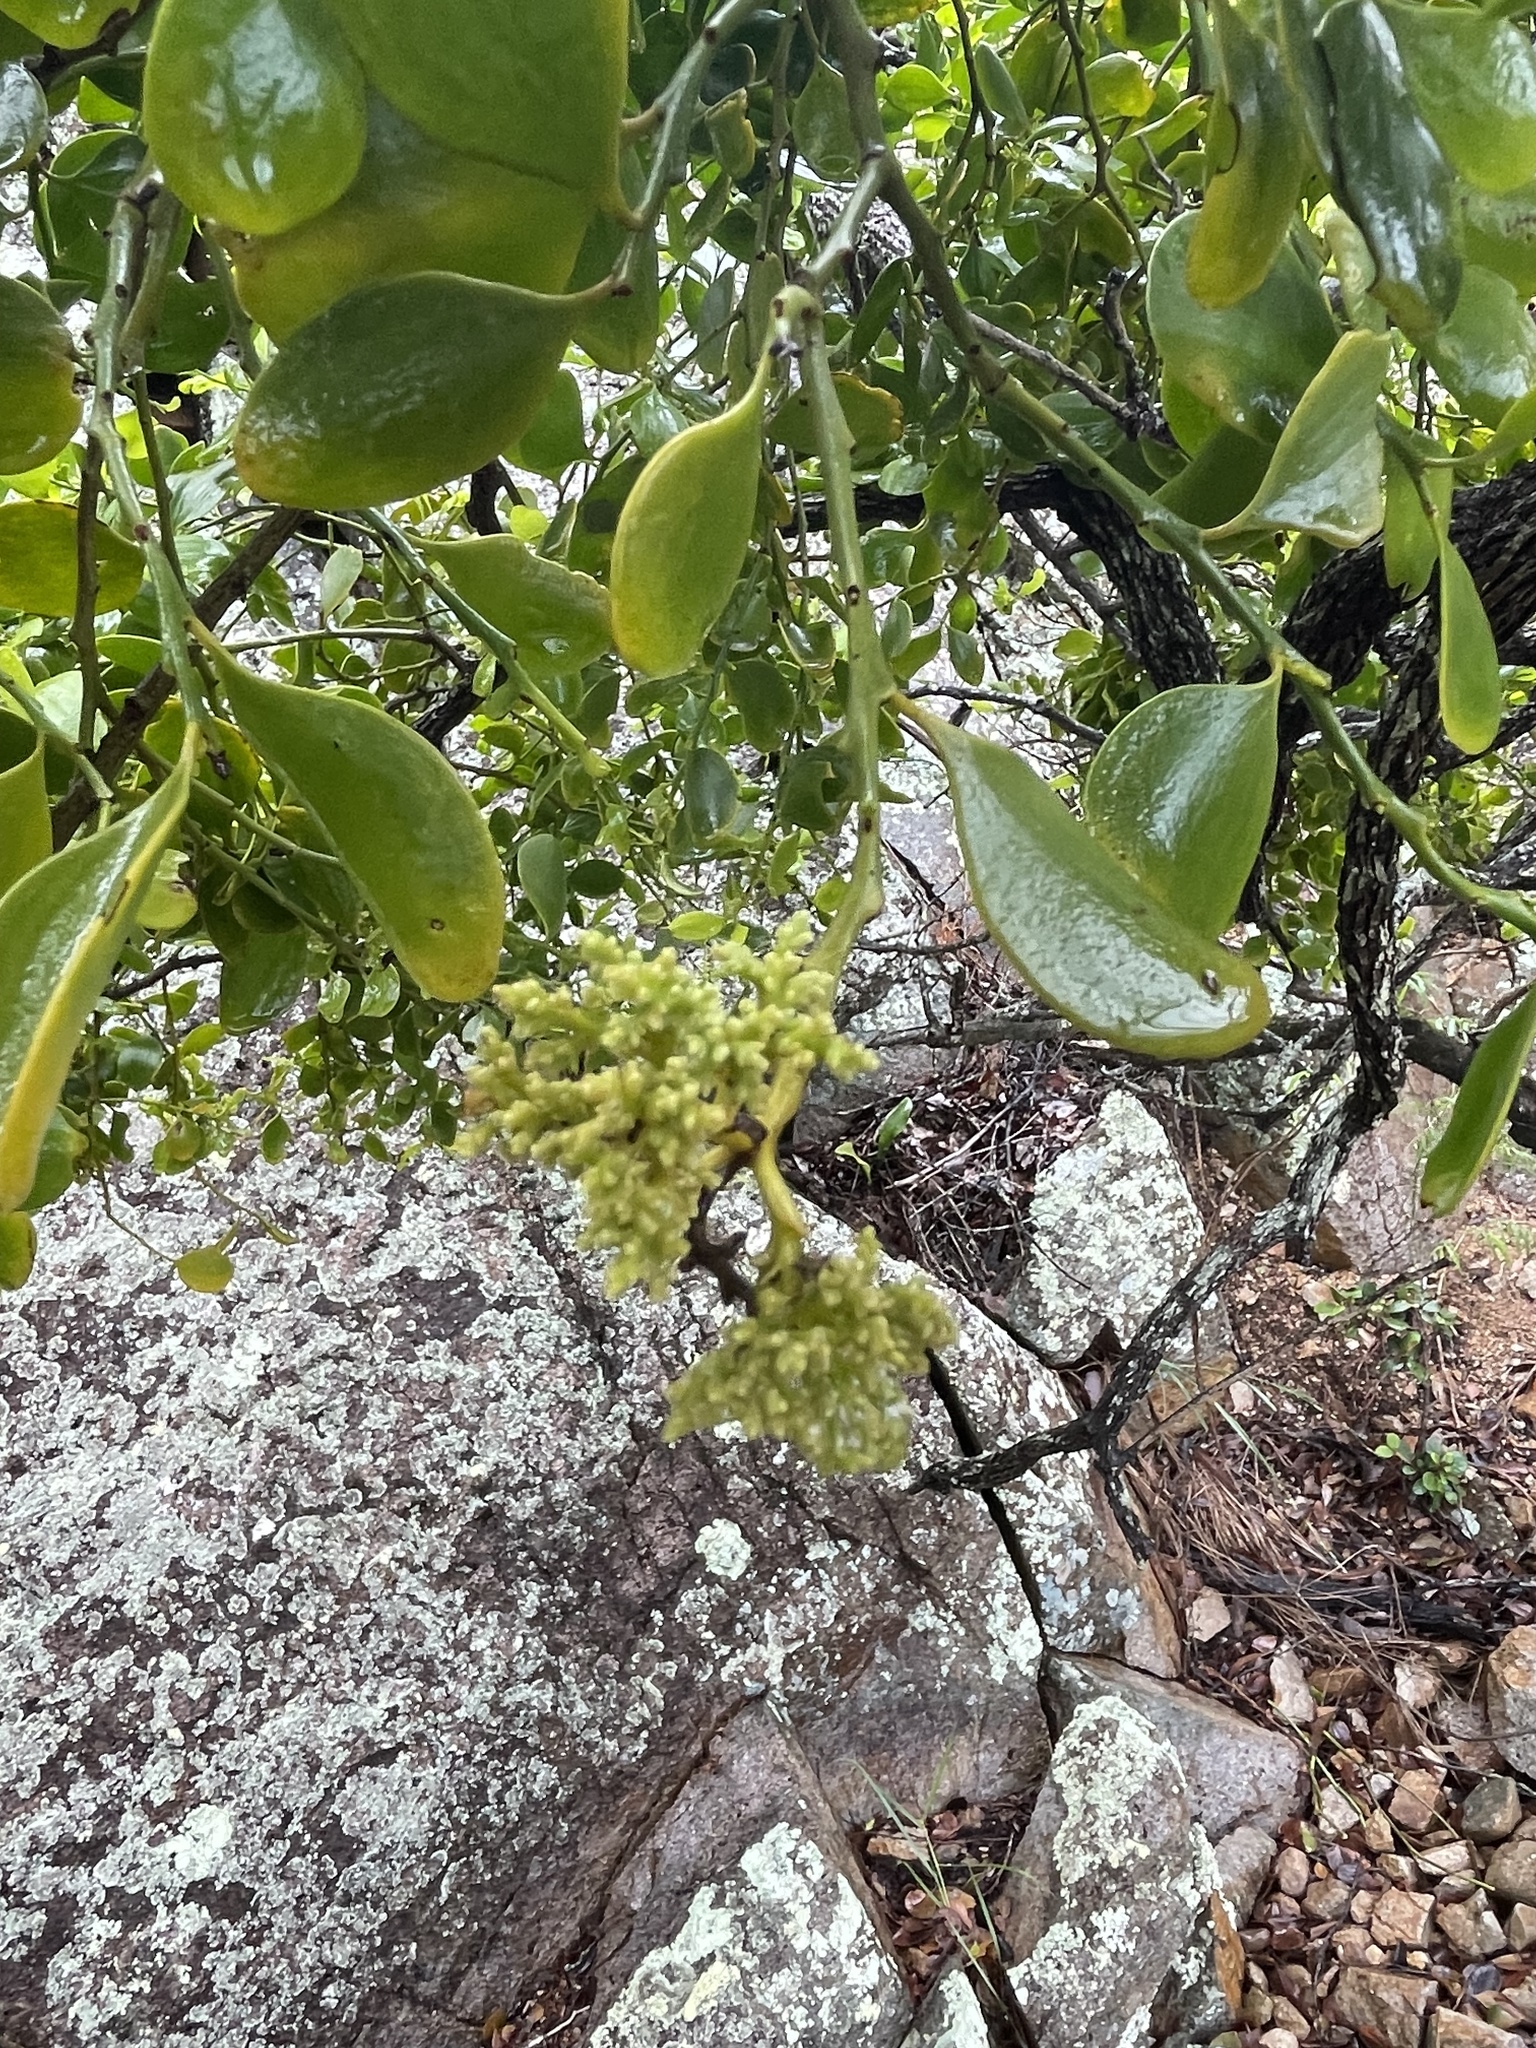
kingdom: Plantae
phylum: Tracheophyta
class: Magnoliopsida
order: Santalales
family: Santalaceae
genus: Exocarpos
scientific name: Exocarpos latifolius
